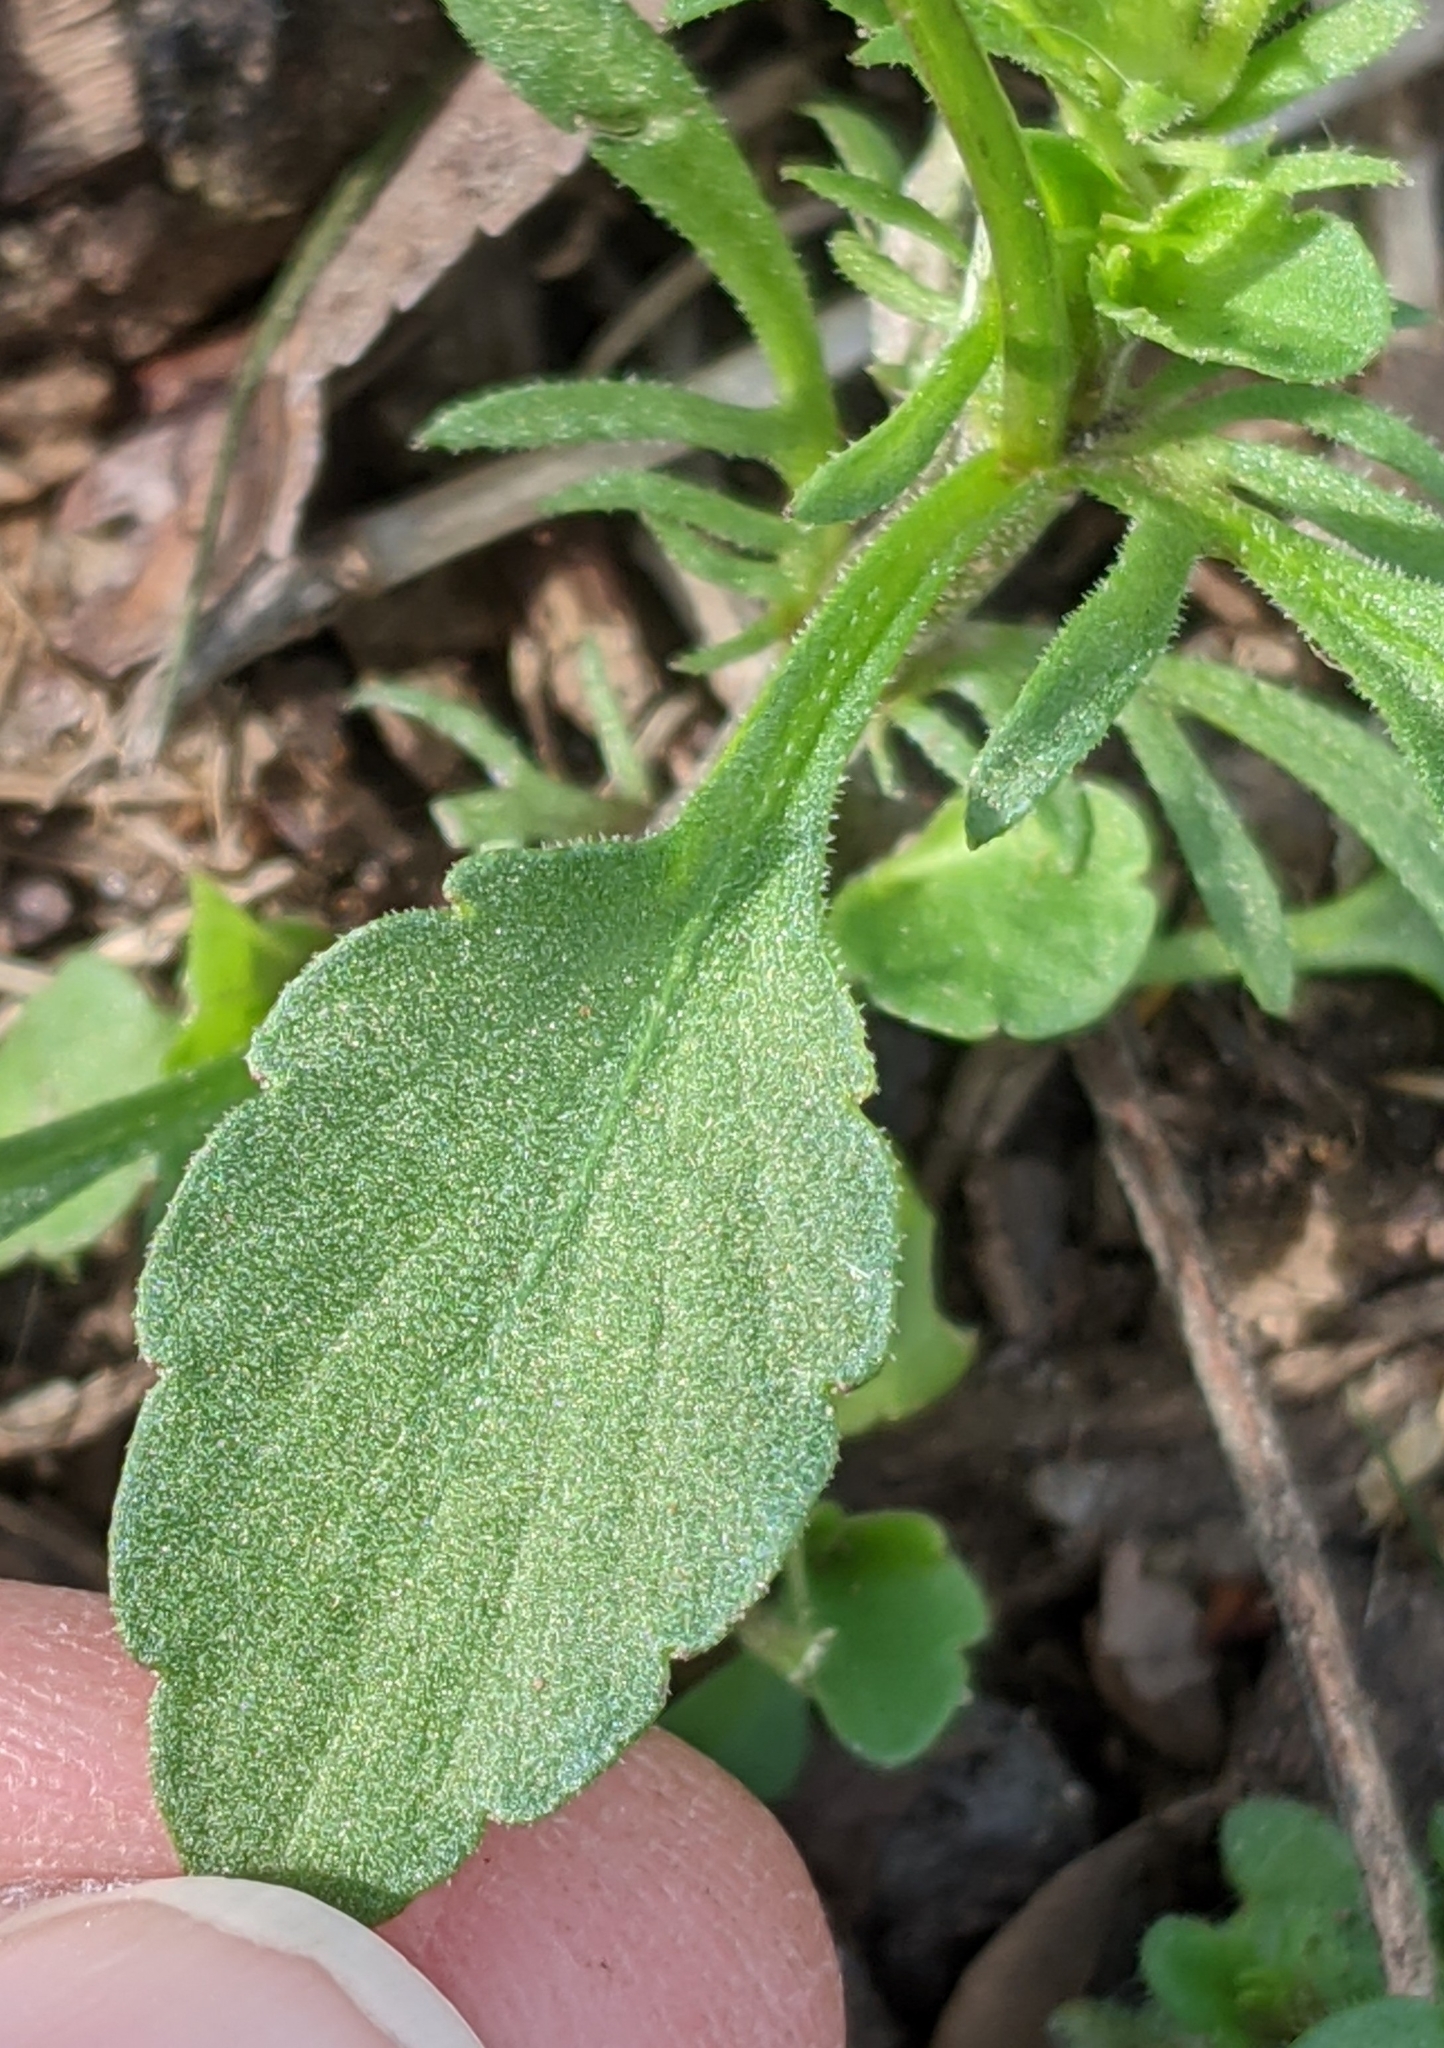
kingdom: Plantae
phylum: Tracheophyta
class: Magnoliopsida
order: Malpighiales
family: Violaceae
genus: Viola
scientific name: Viola arvensis
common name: Field pansy
